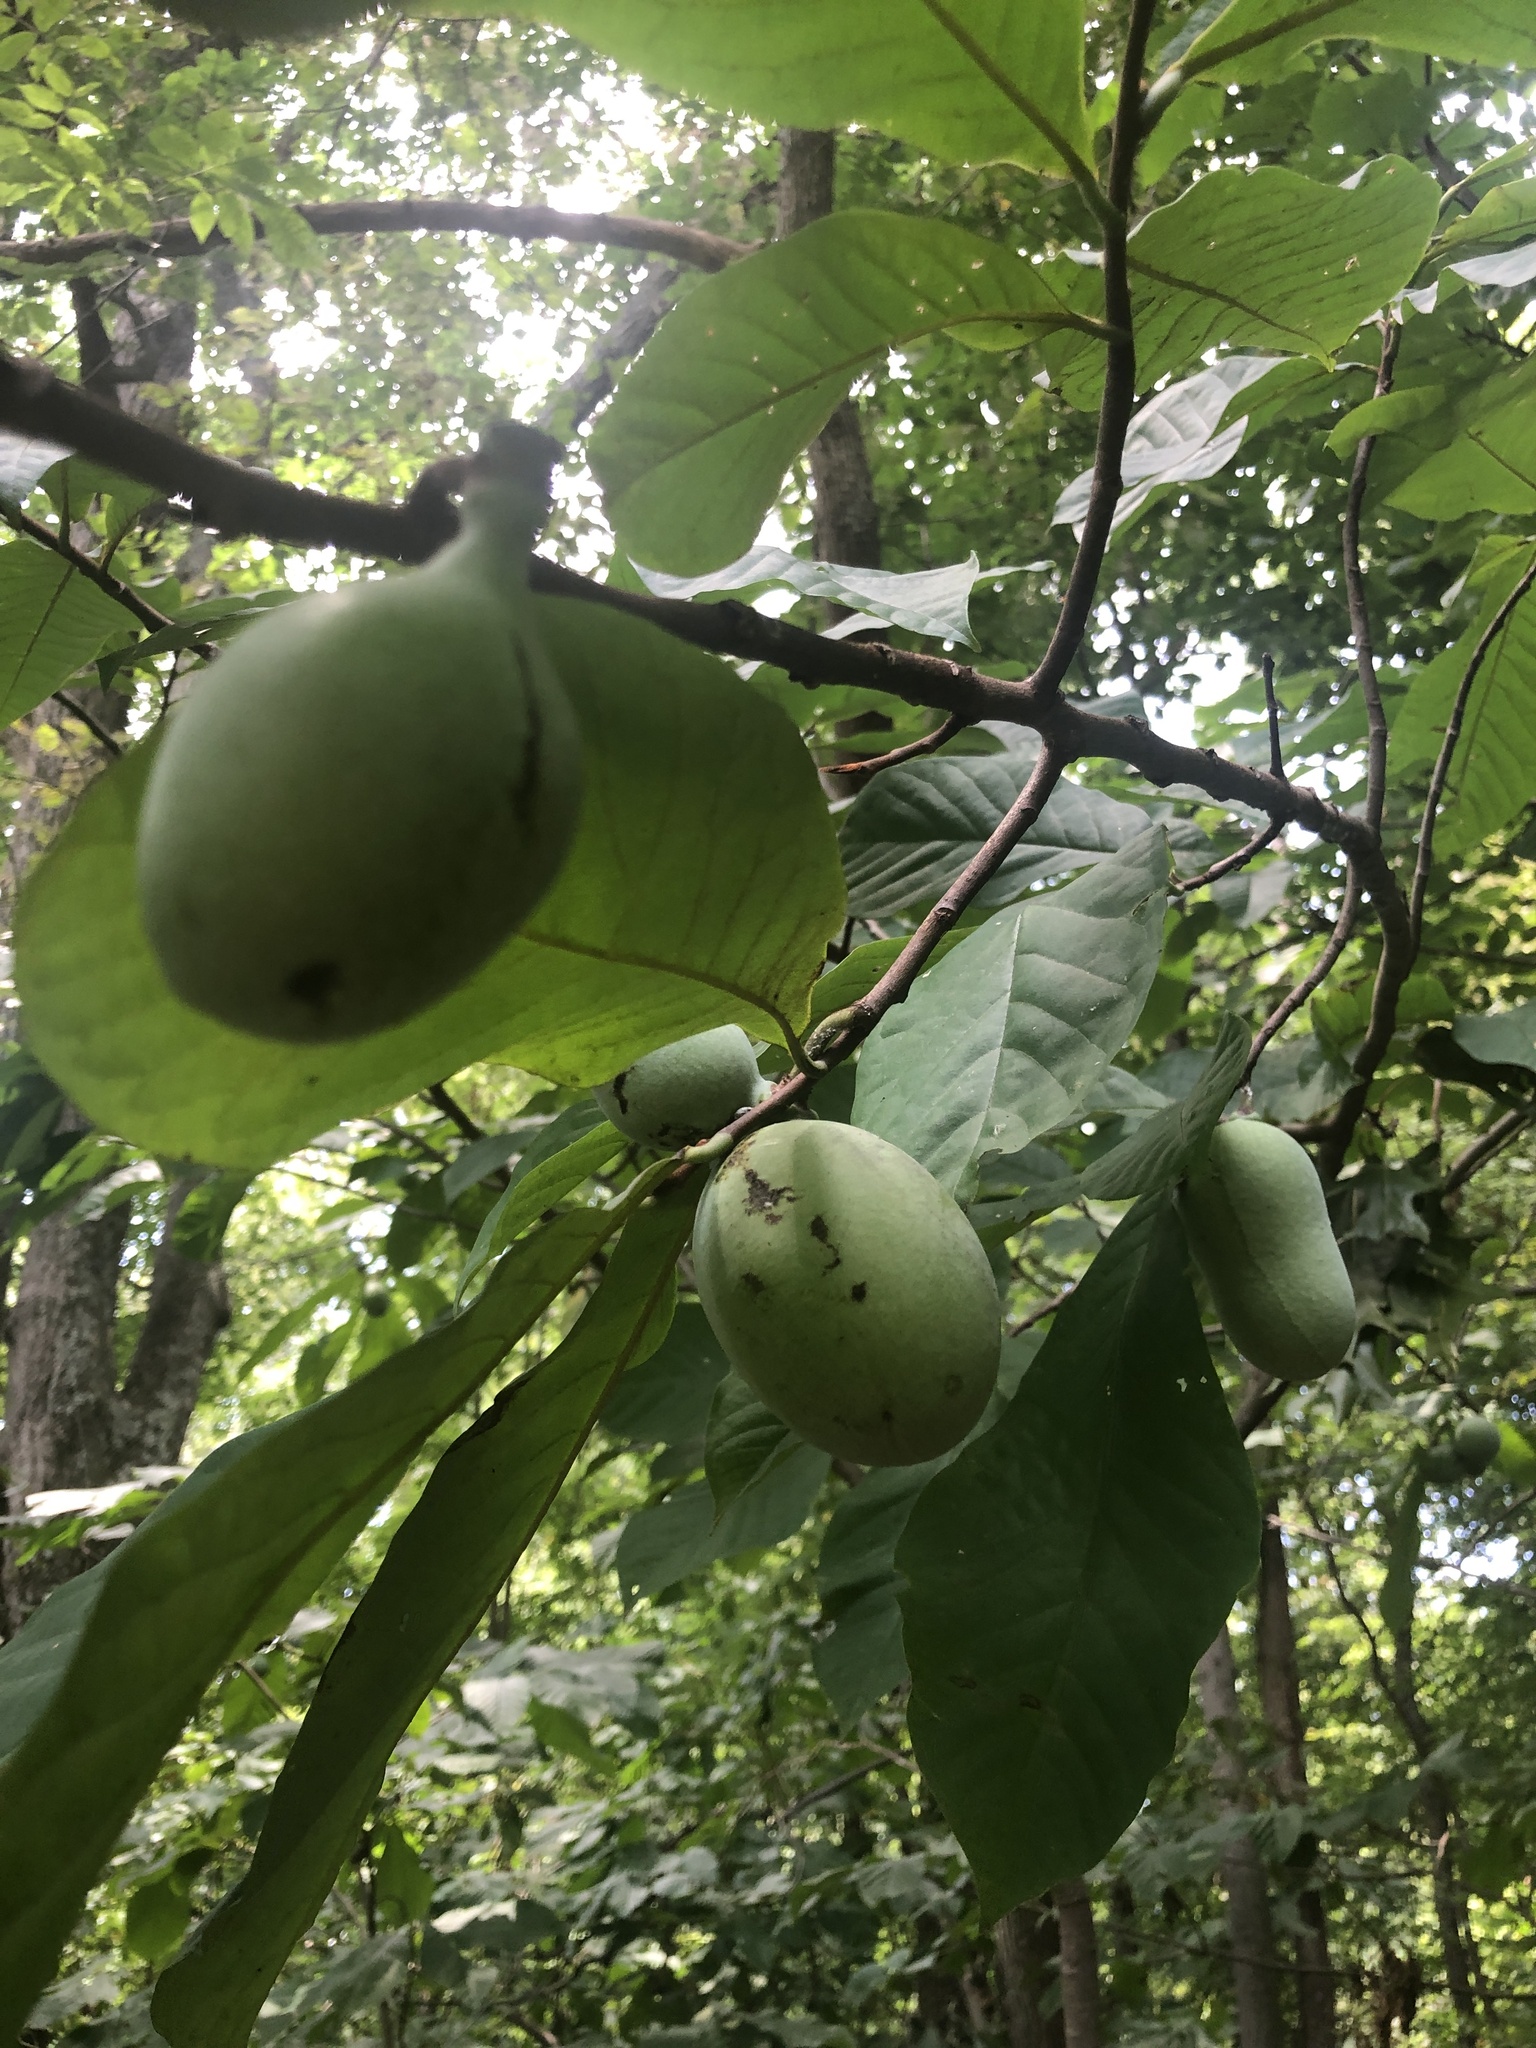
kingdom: Plantae
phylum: Tracheophyta
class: Magnoliopsida
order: Magnoliales
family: Annonaceae
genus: Asimina
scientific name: Asimina triloba
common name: Dog-banana
